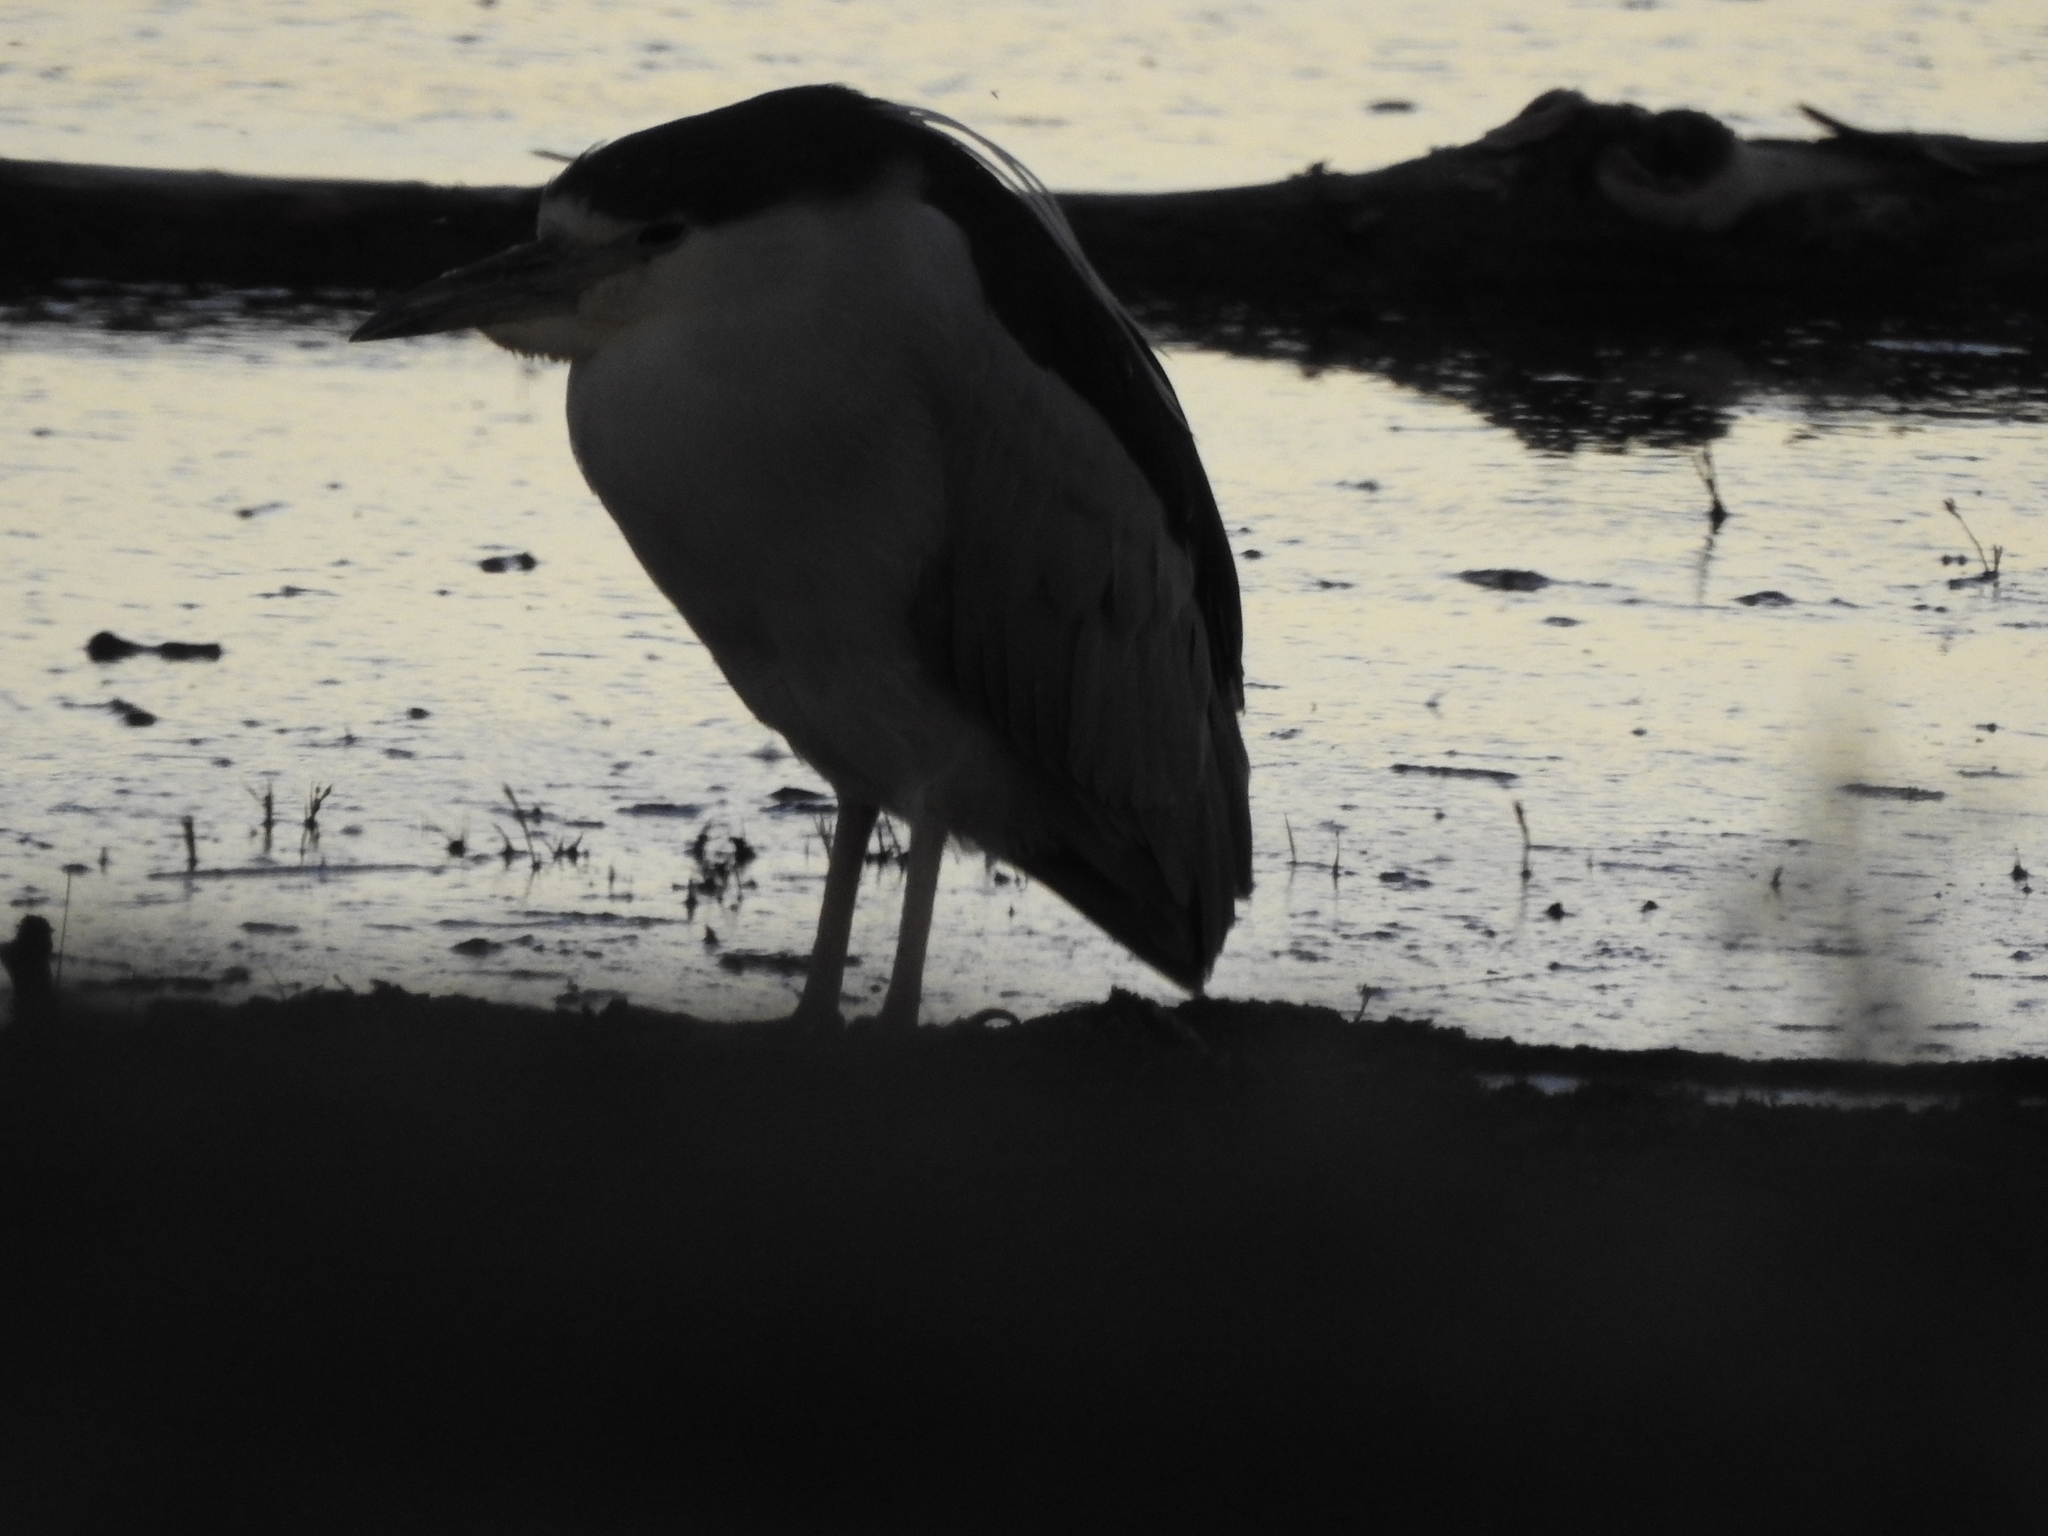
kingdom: Animalia
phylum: Chordata
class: Aves
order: Pelecaniformes
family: Ardeidae
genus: Nycticorax
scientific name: Nycticorax nycticorax
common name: Black-crowned night heron
